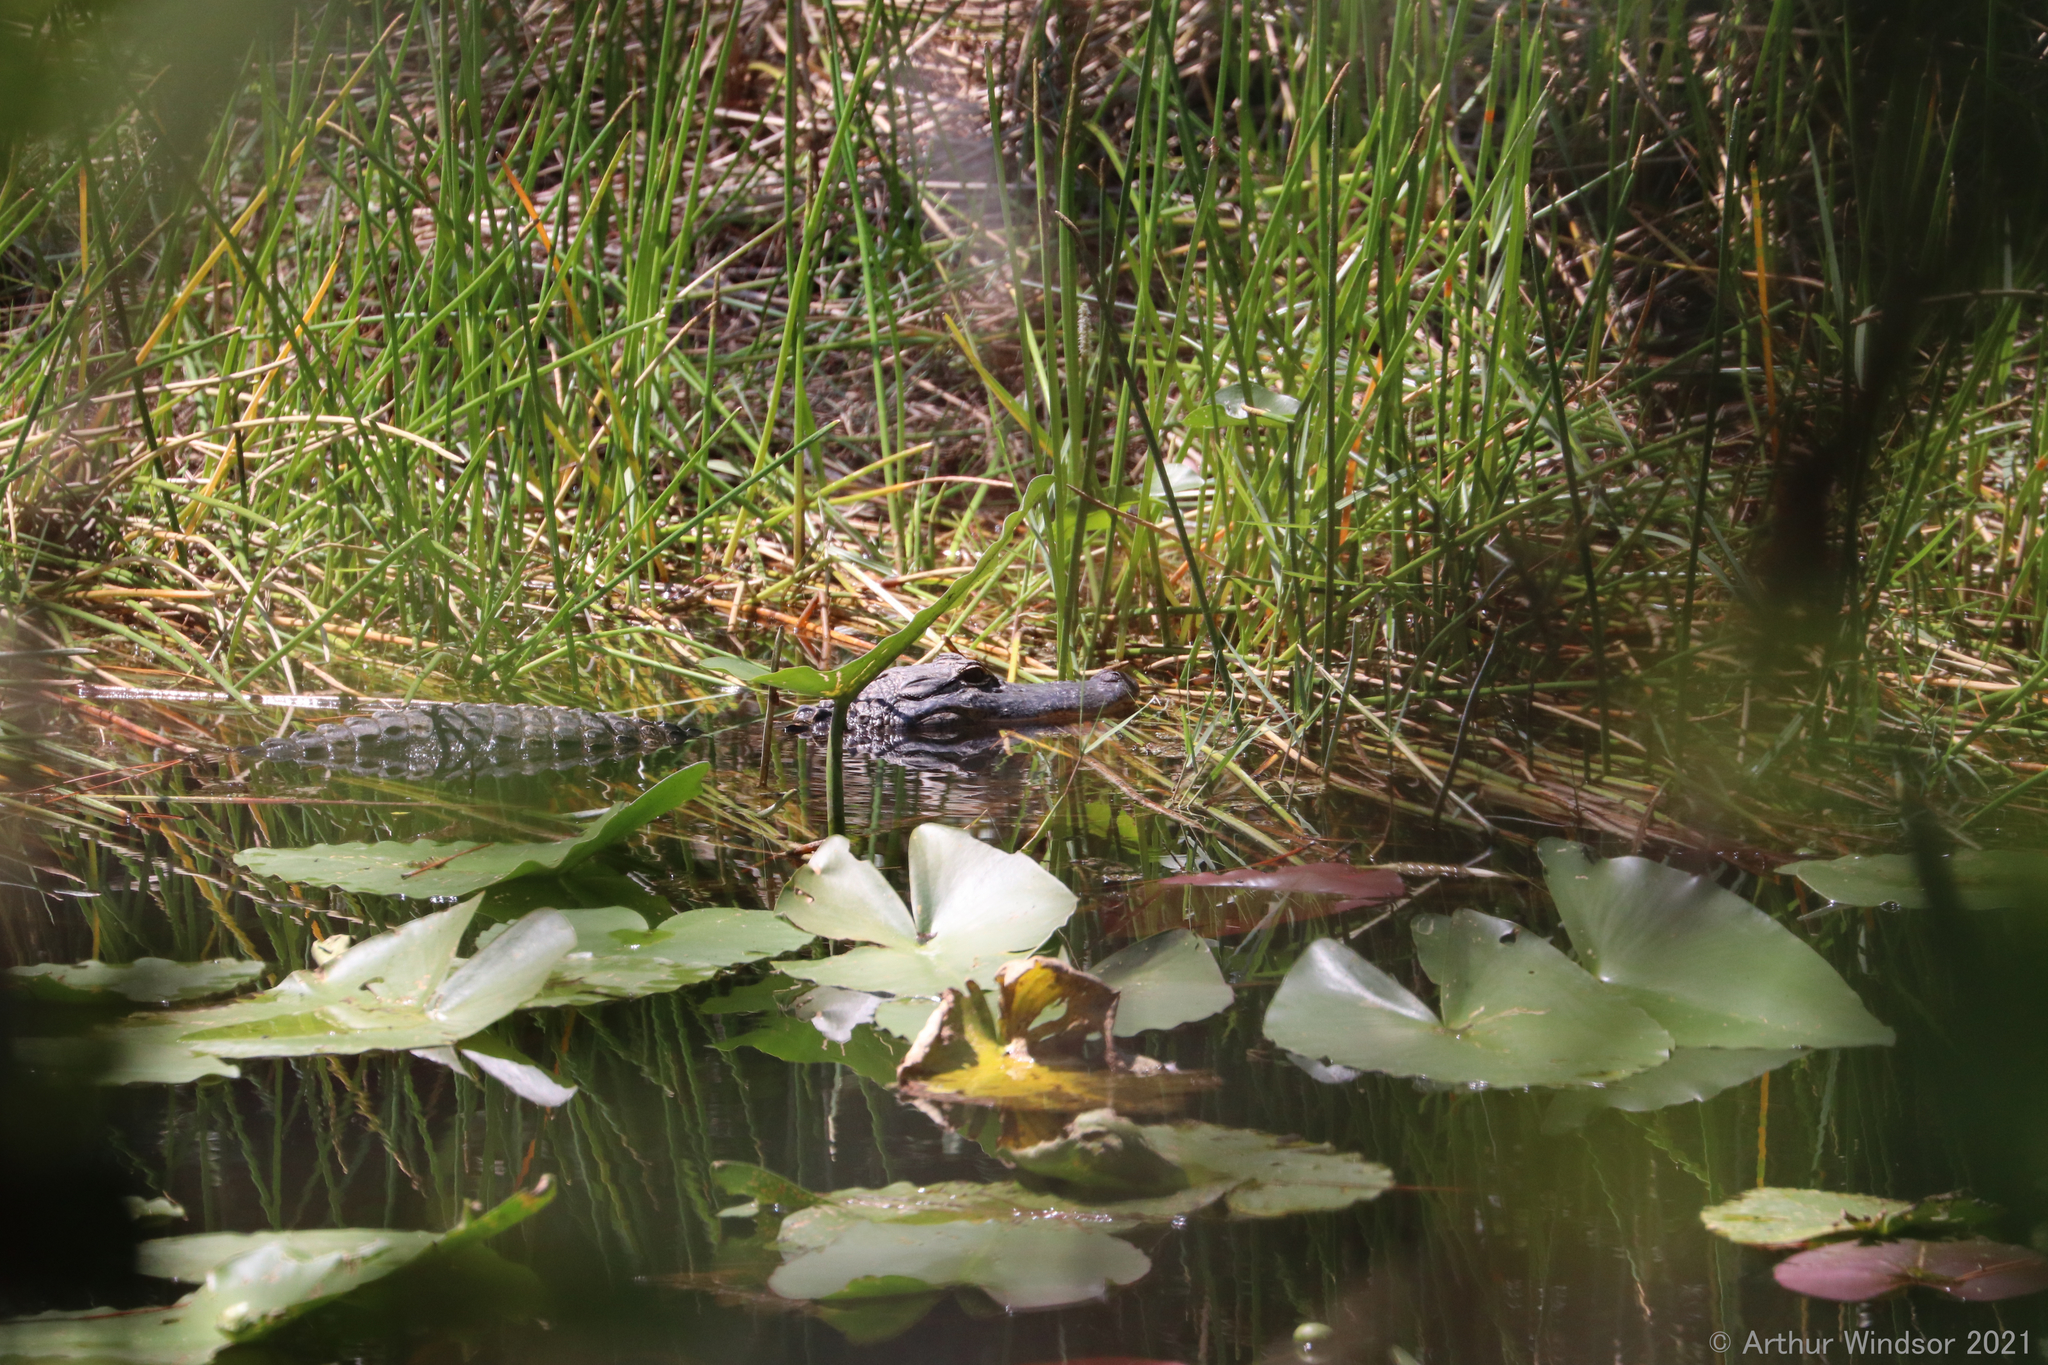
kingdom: Animalia
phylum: Chordata
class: Crocodylia
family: Alligatoridae
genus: Alligator
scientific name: Alligator mississippiensis
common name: American alligator
